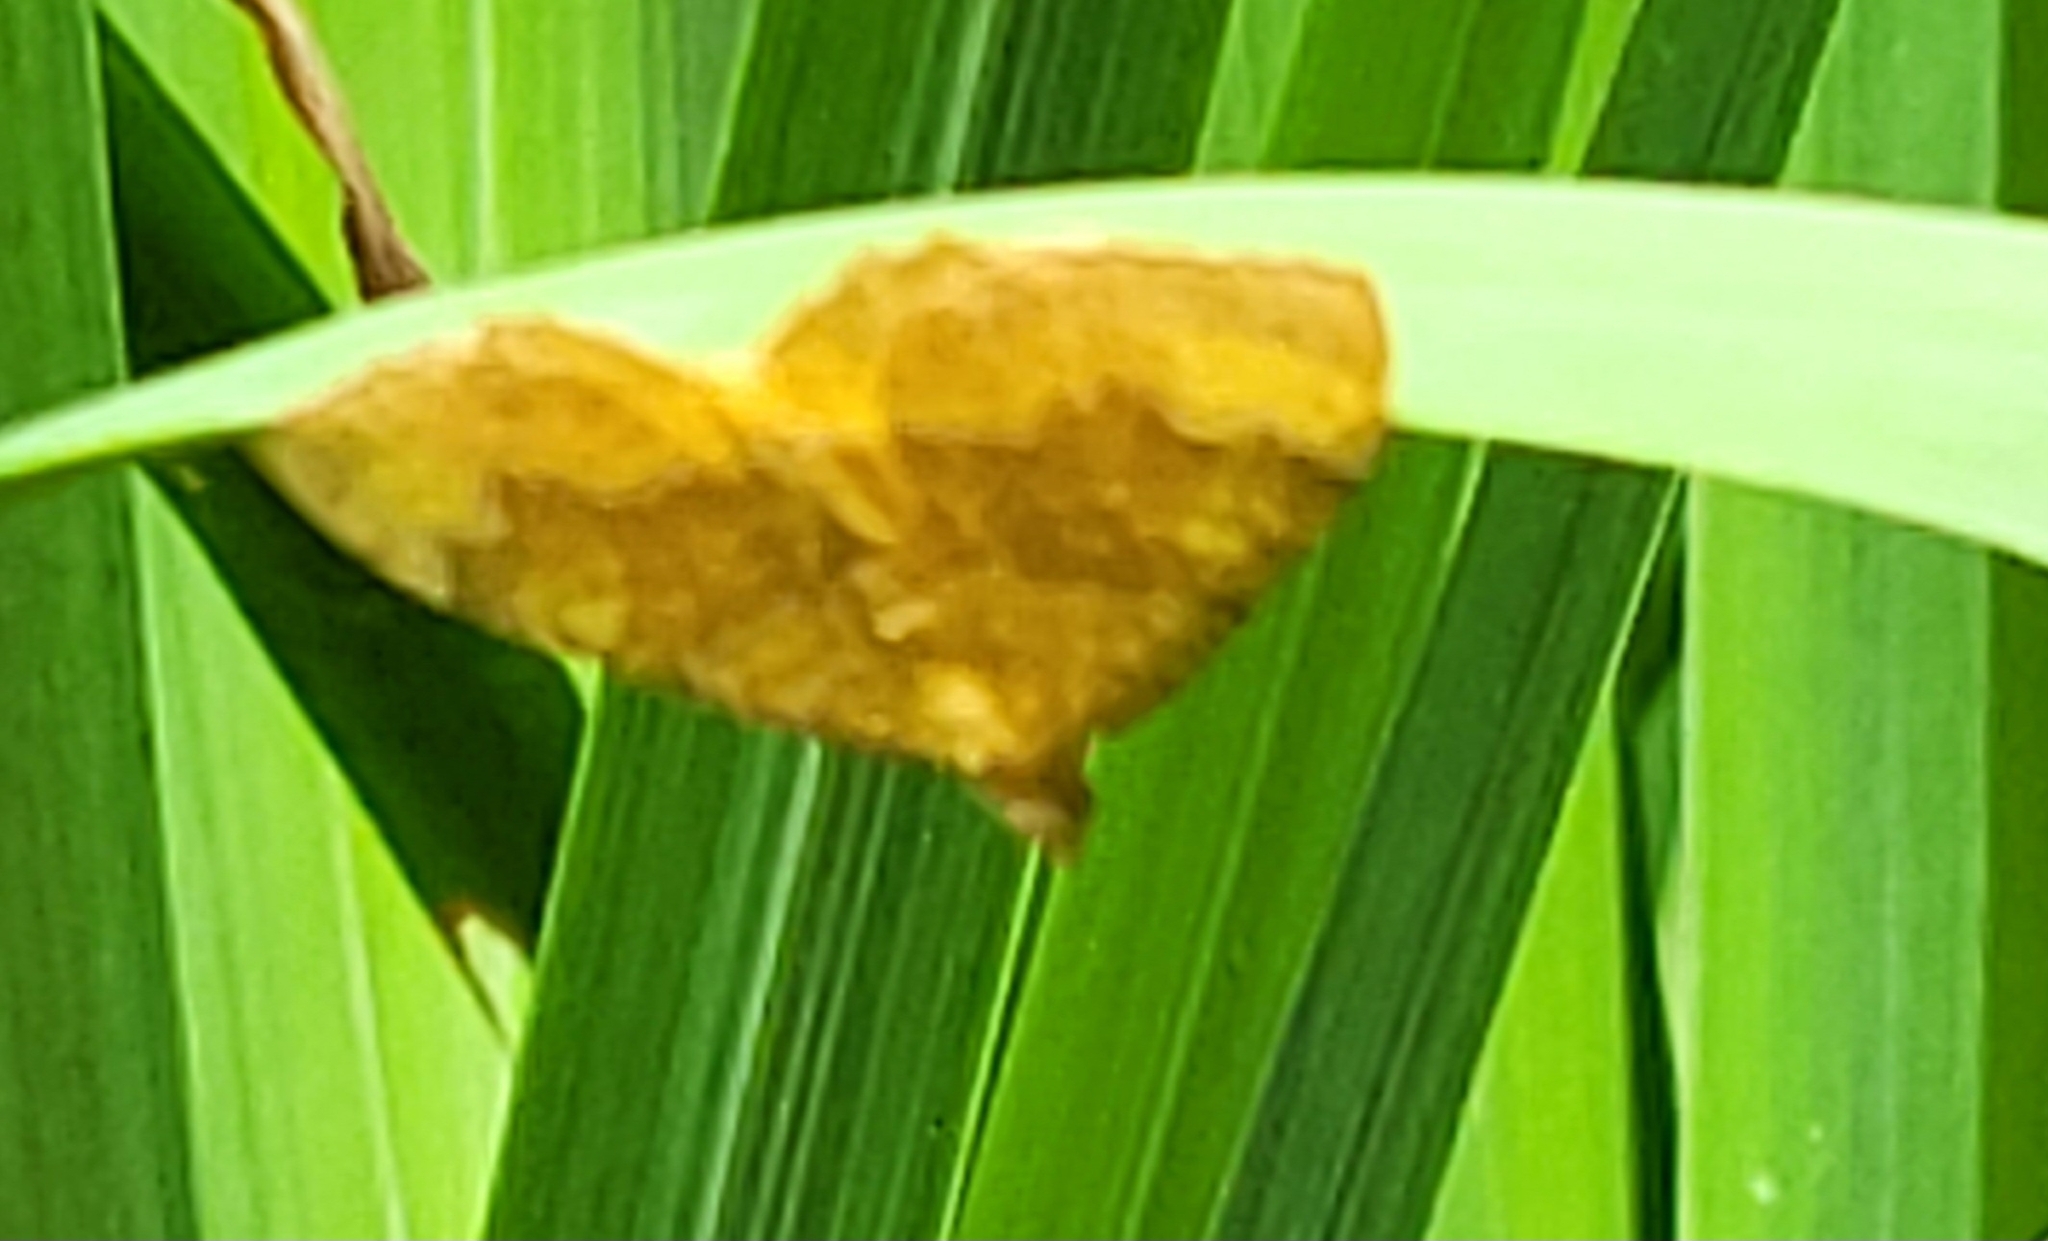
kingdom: Animalia
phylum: Arthropoda
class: Insecta
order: Lepidoptera
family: Geometridae
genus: Camptogramma
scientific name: Camptogramma bilineata
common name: Yellow shell
